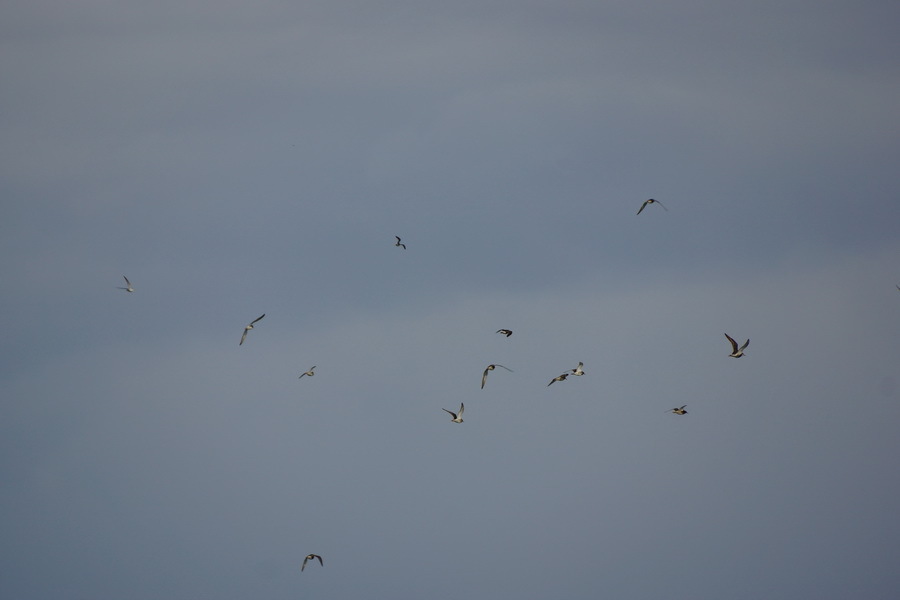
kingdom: Animalia
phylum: Chordata
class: Aves
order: Charadriiformes
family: Scolopacidae
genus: Calidris
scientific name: Calidris pugnax
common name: Ruff
